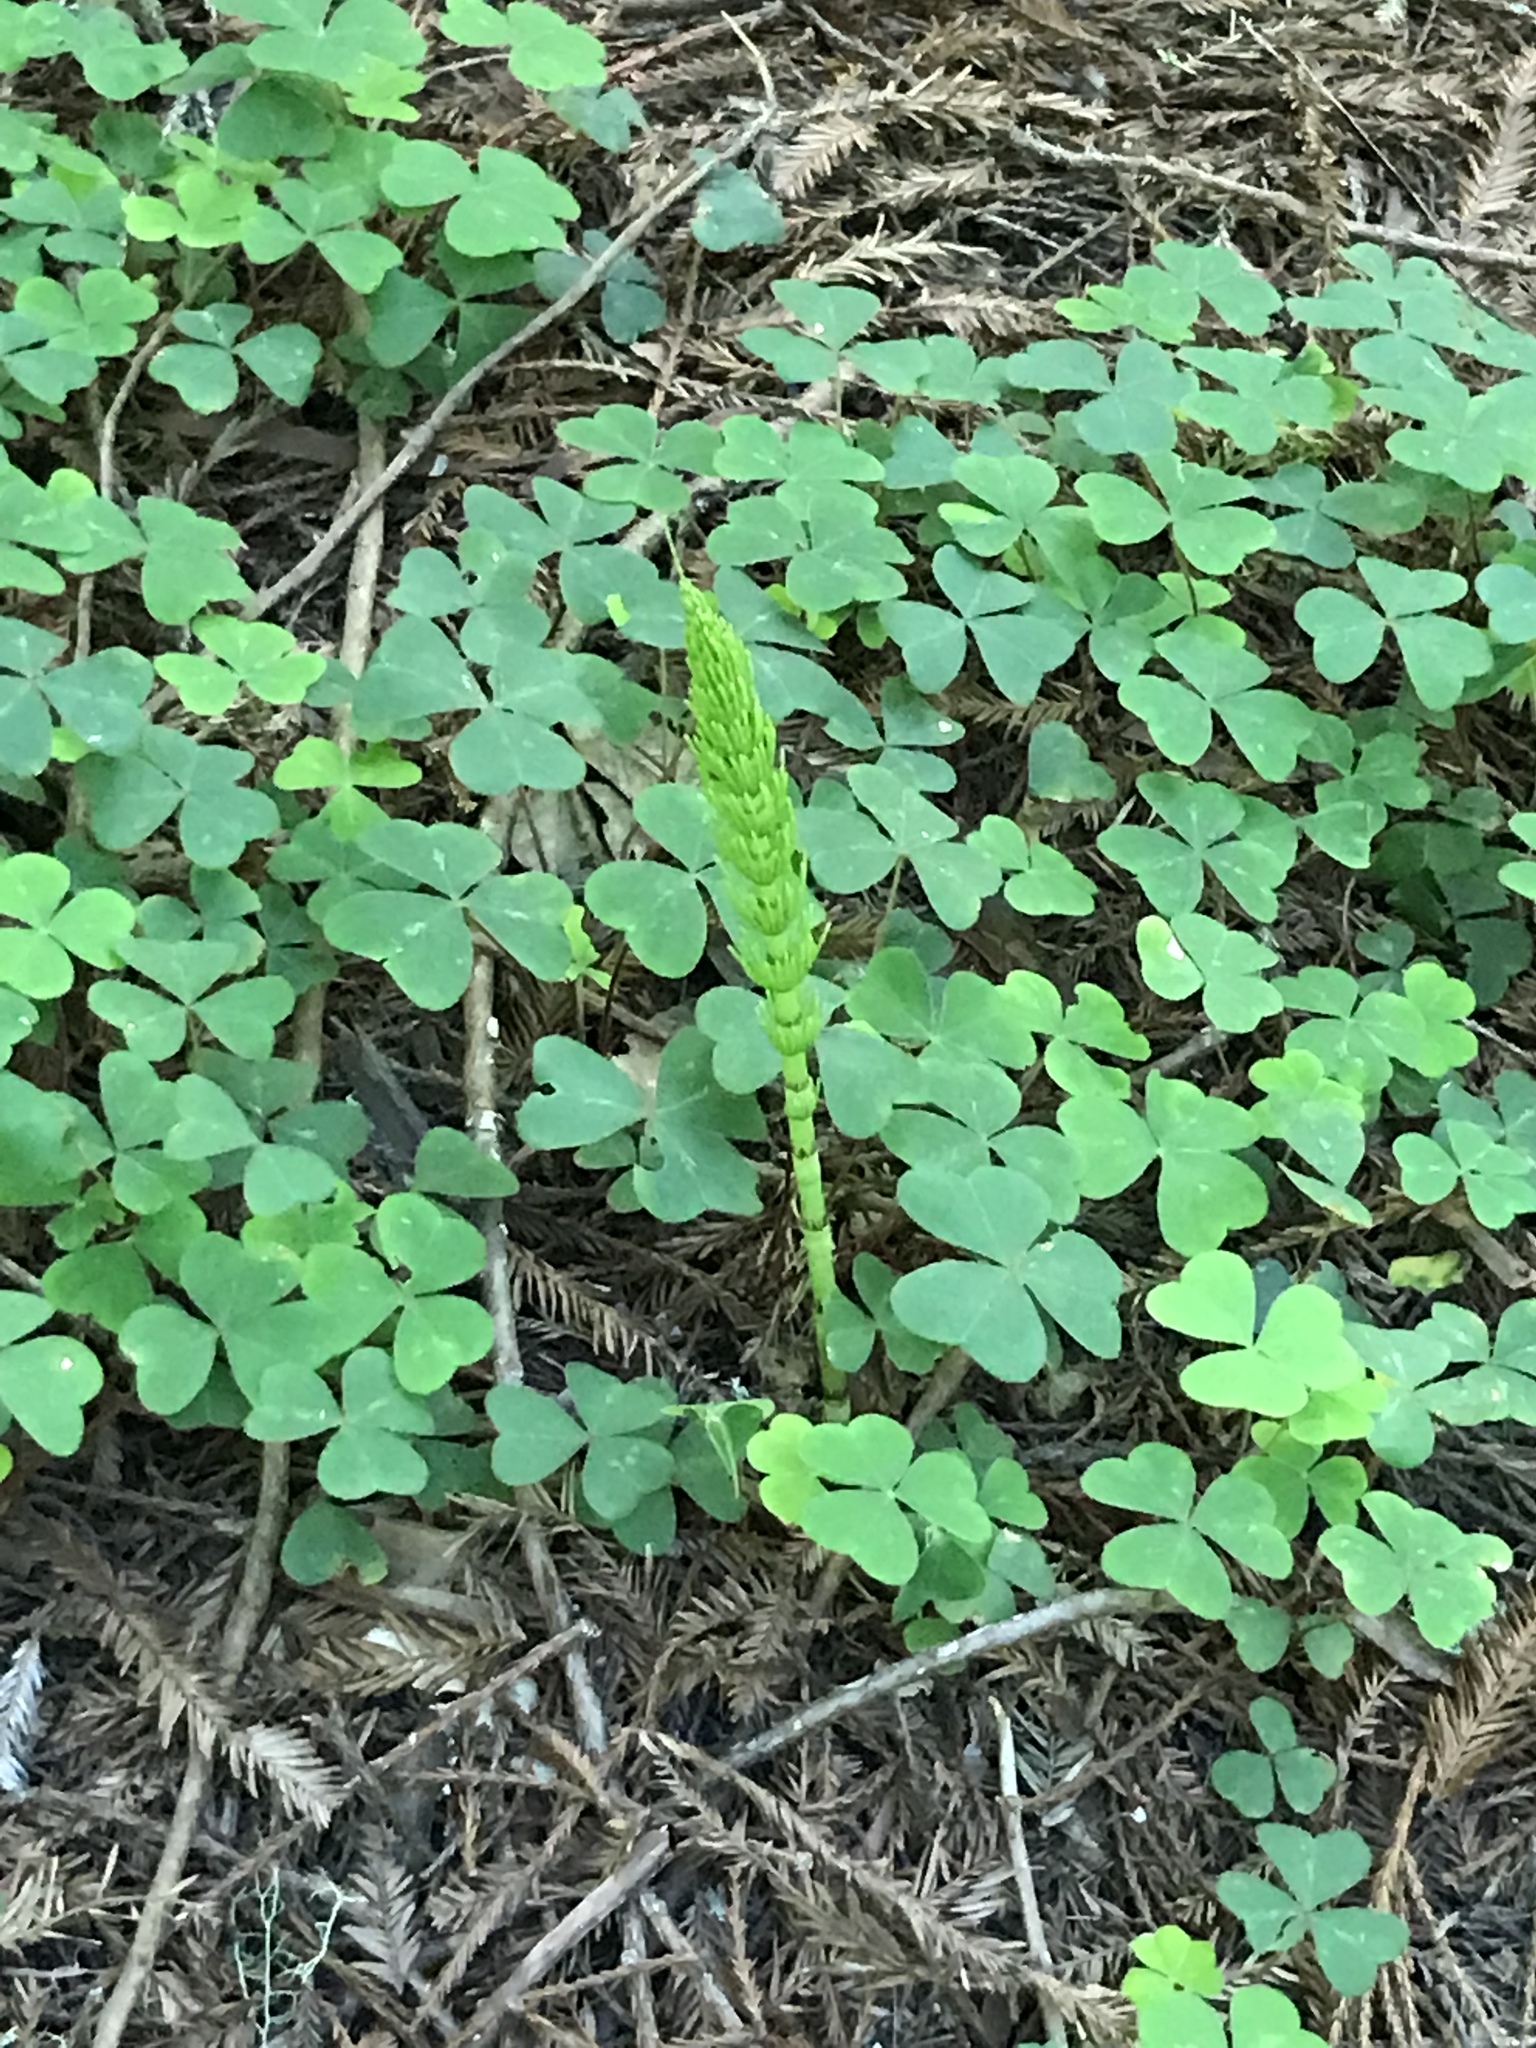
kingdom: Plantae
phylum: Tracheophyta
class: Polypodiopsida
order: Equisetales
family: Equisetaceae
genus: Equisetum
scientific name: Equisetum telmateia
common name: Great horsetail
